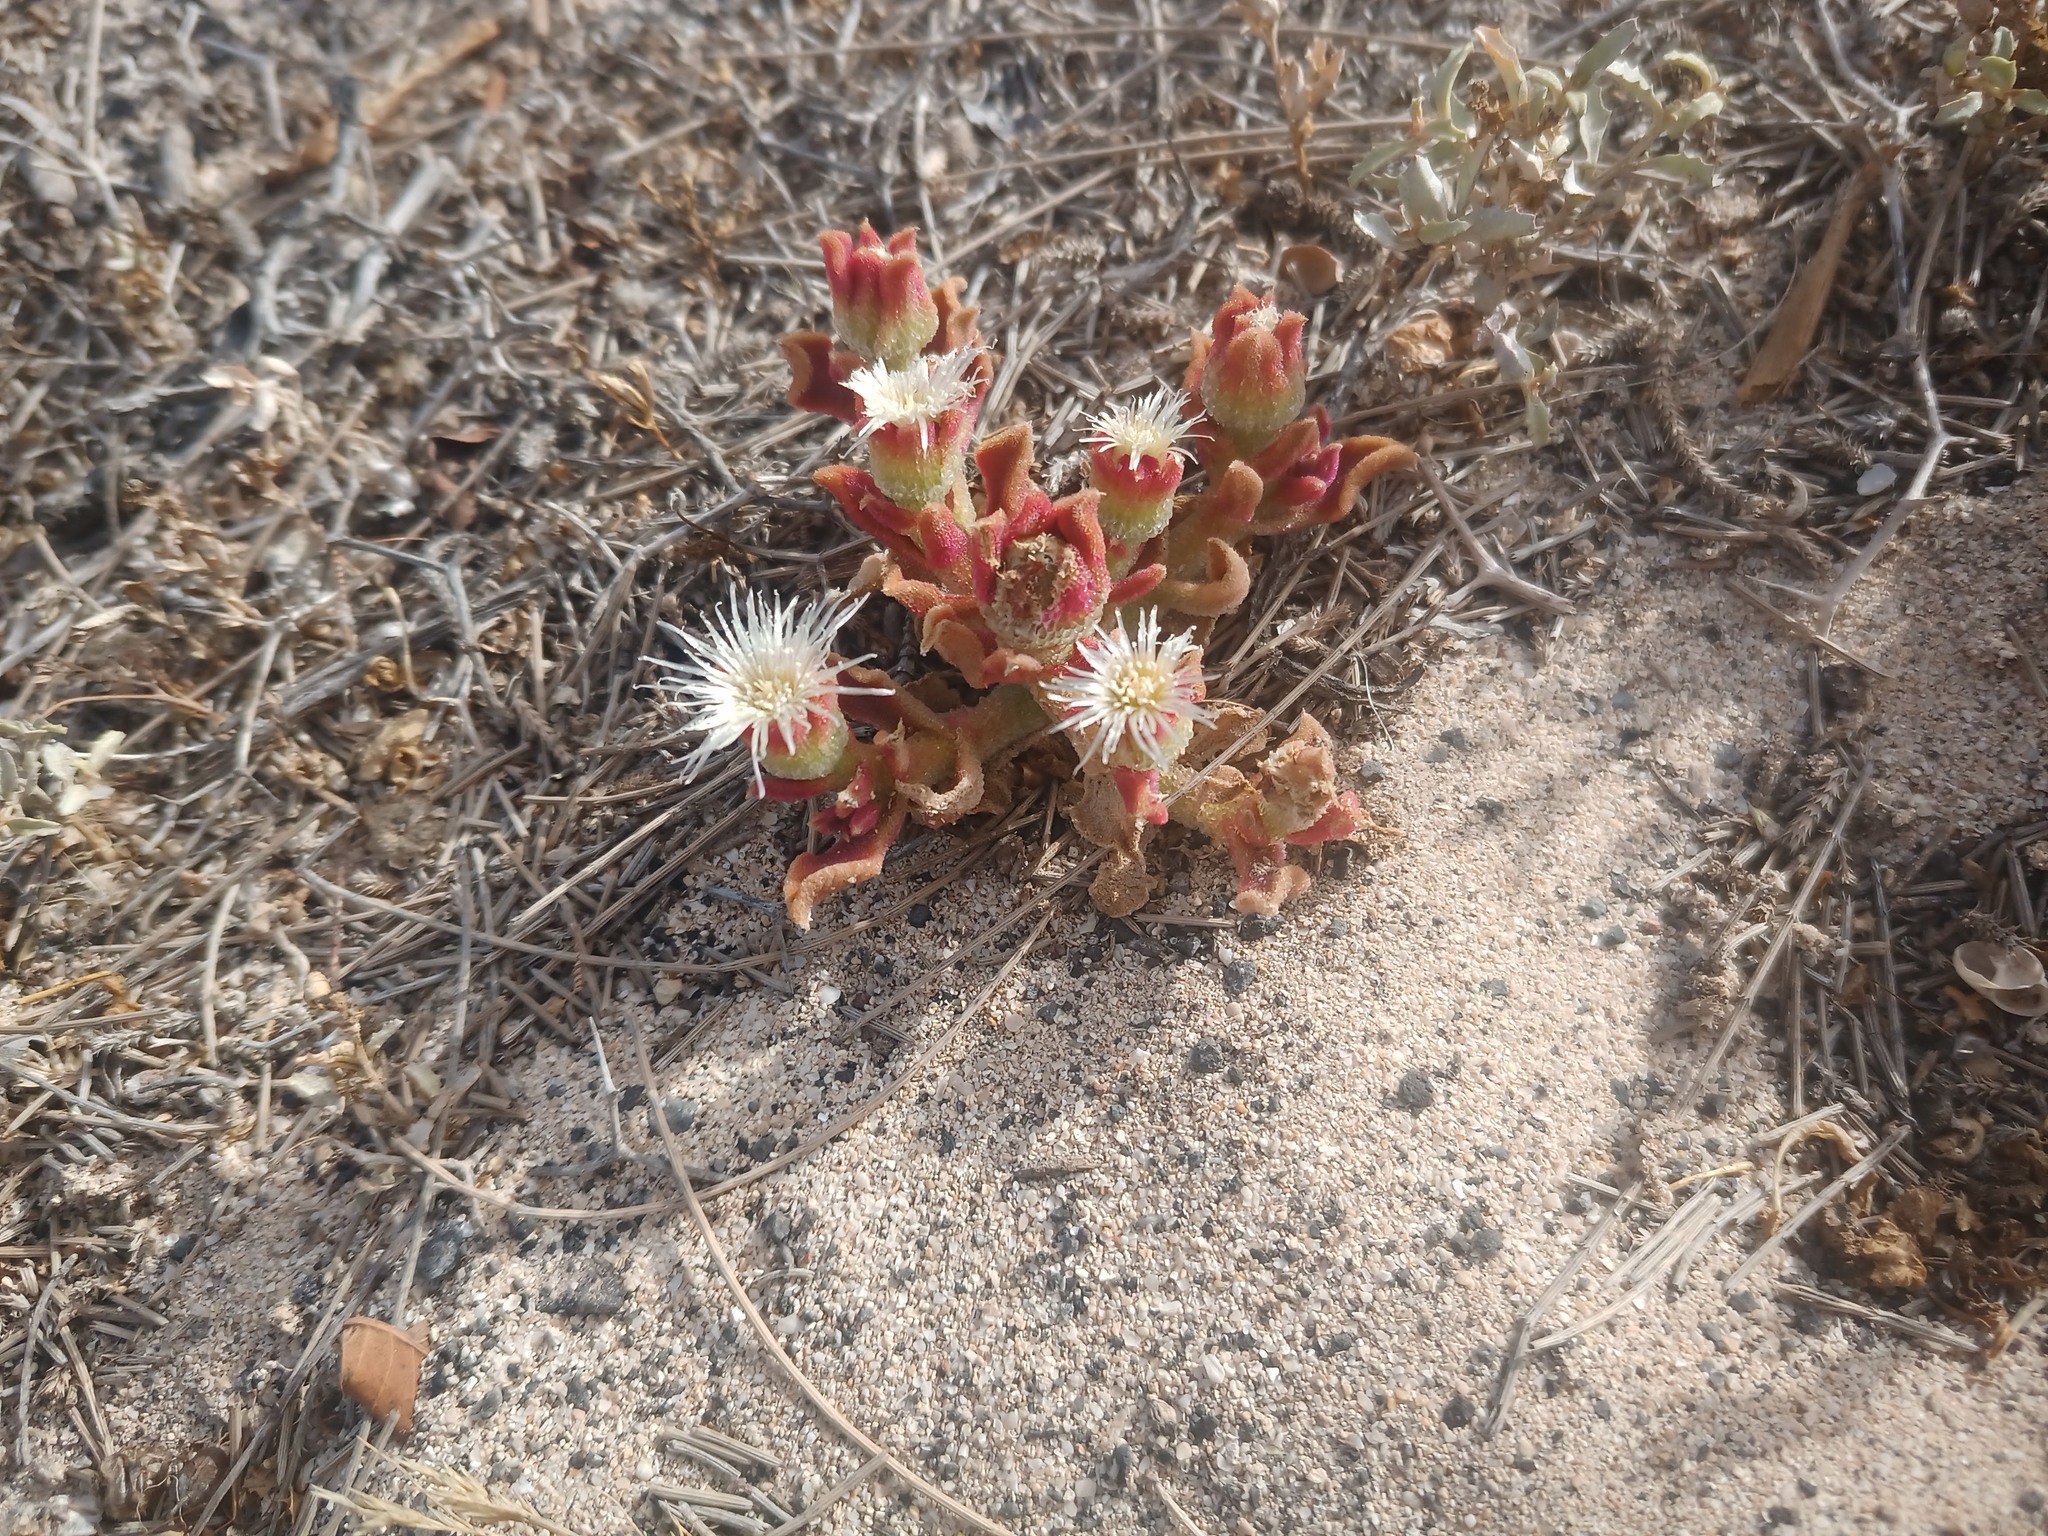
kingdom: Plantae
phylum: Tracheophyta
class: Magnoliopsida
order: Caryophyllales
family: Aizoaceae
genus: Mesembryanthemum
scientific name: Mesembryanthemum crystallinum
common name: Common iceplant
